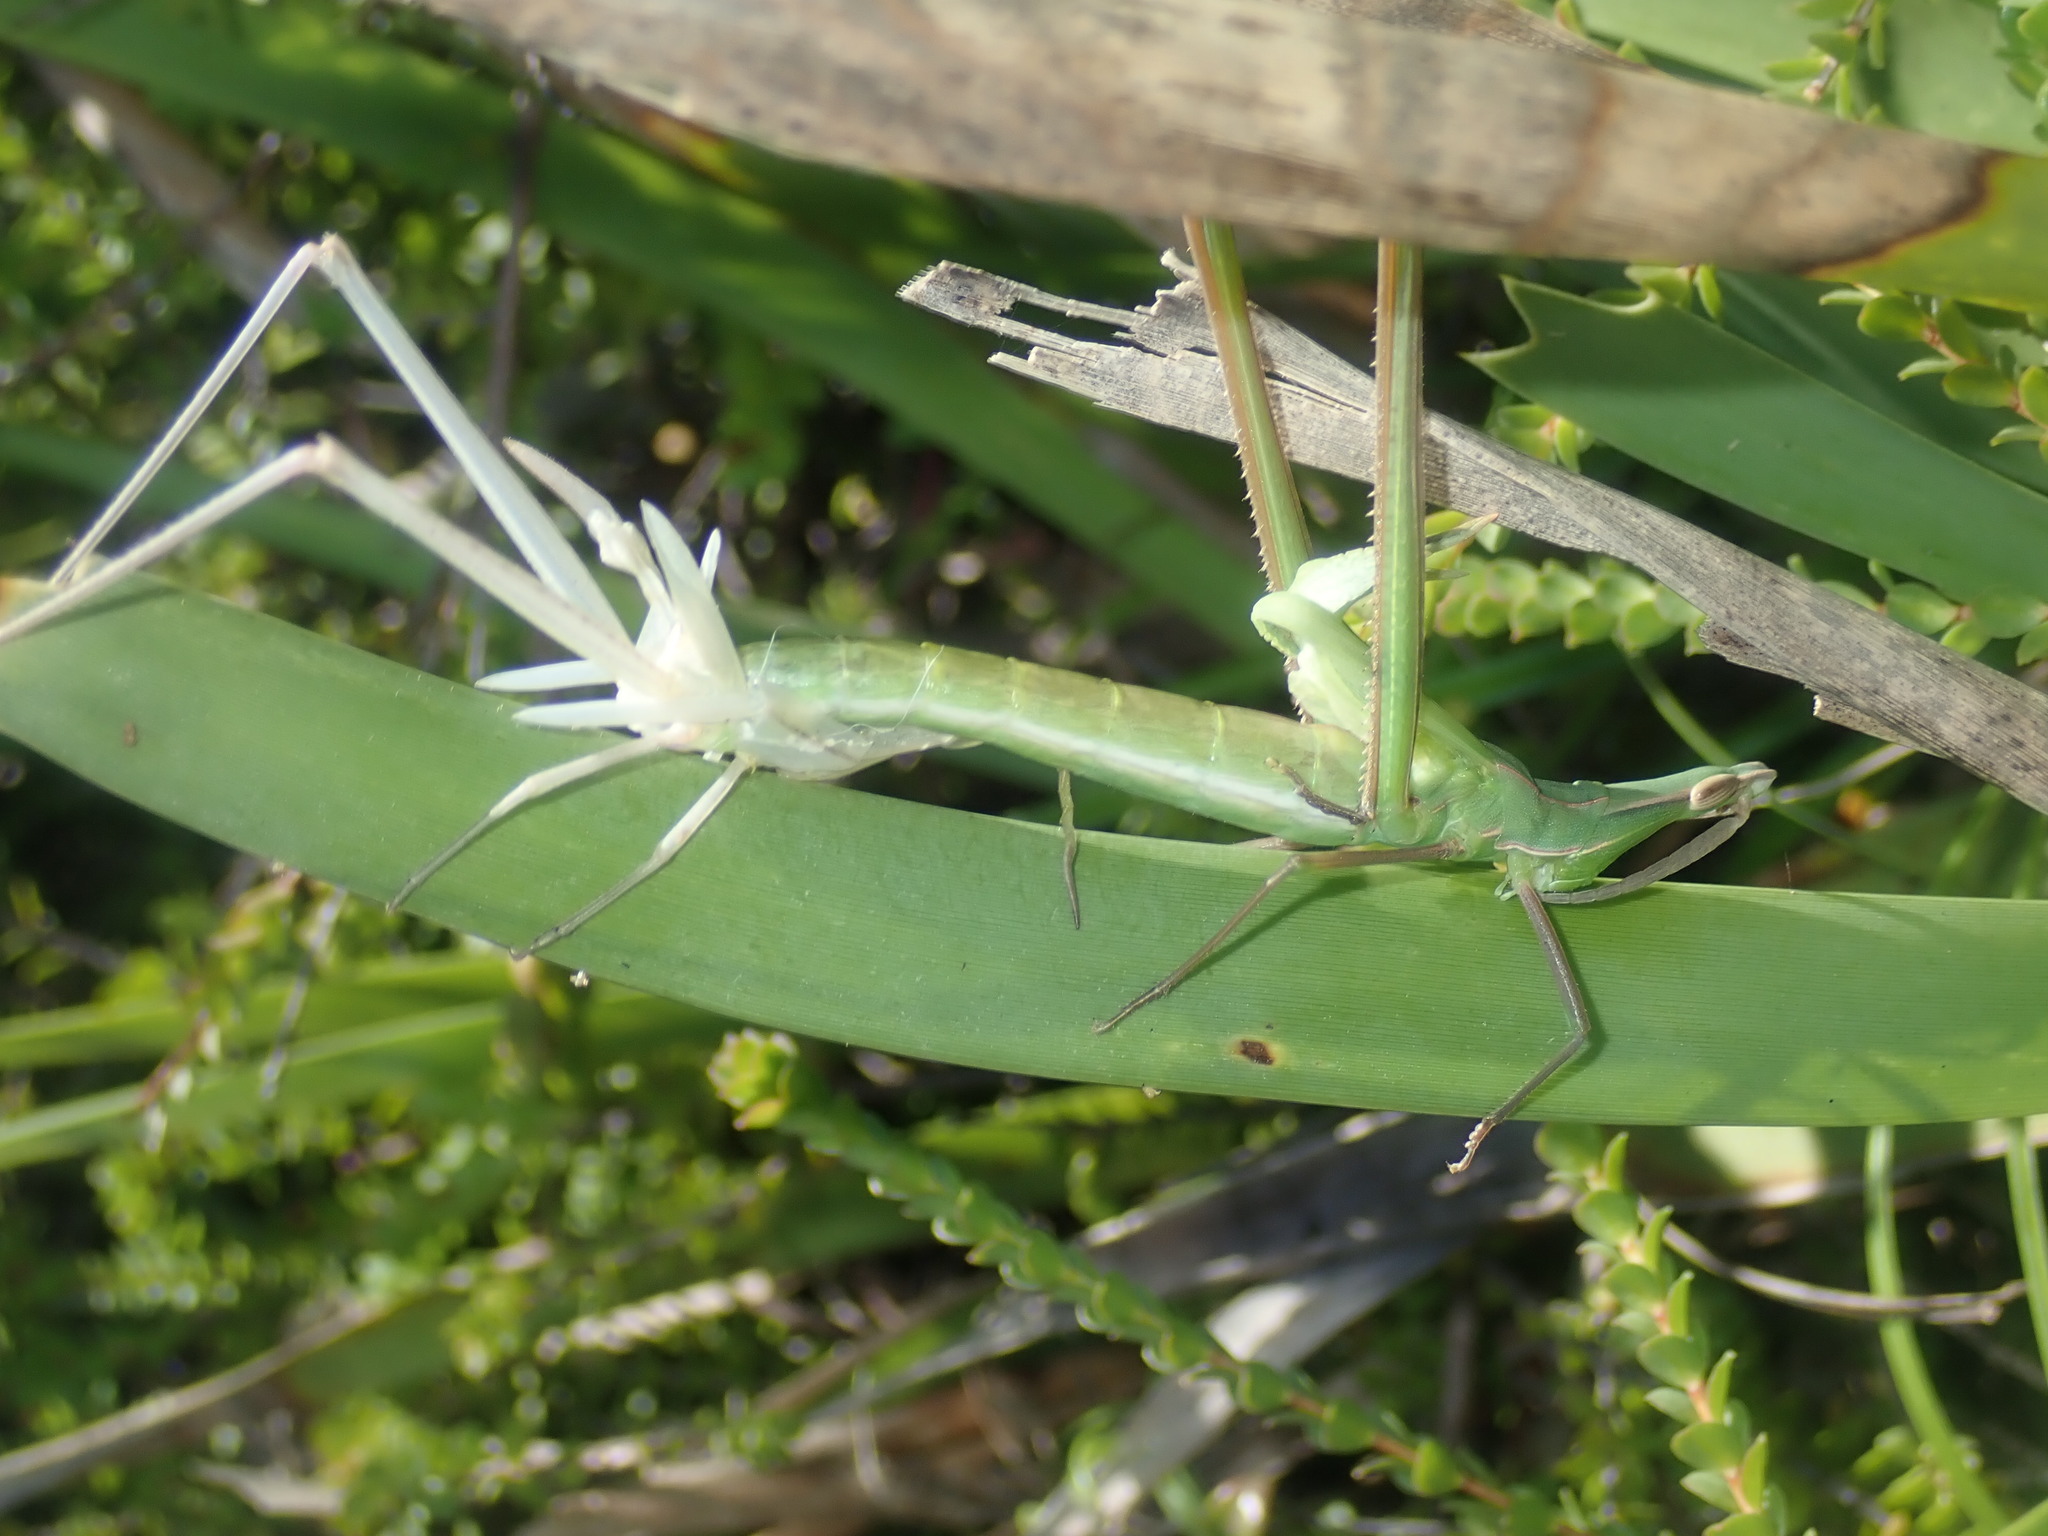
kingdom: Animalia
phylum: Arthropoda
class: Insecta
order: Orthoptera
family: Acrididae
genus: Acrida
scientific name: Acrida conica
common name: Giant green slantface
